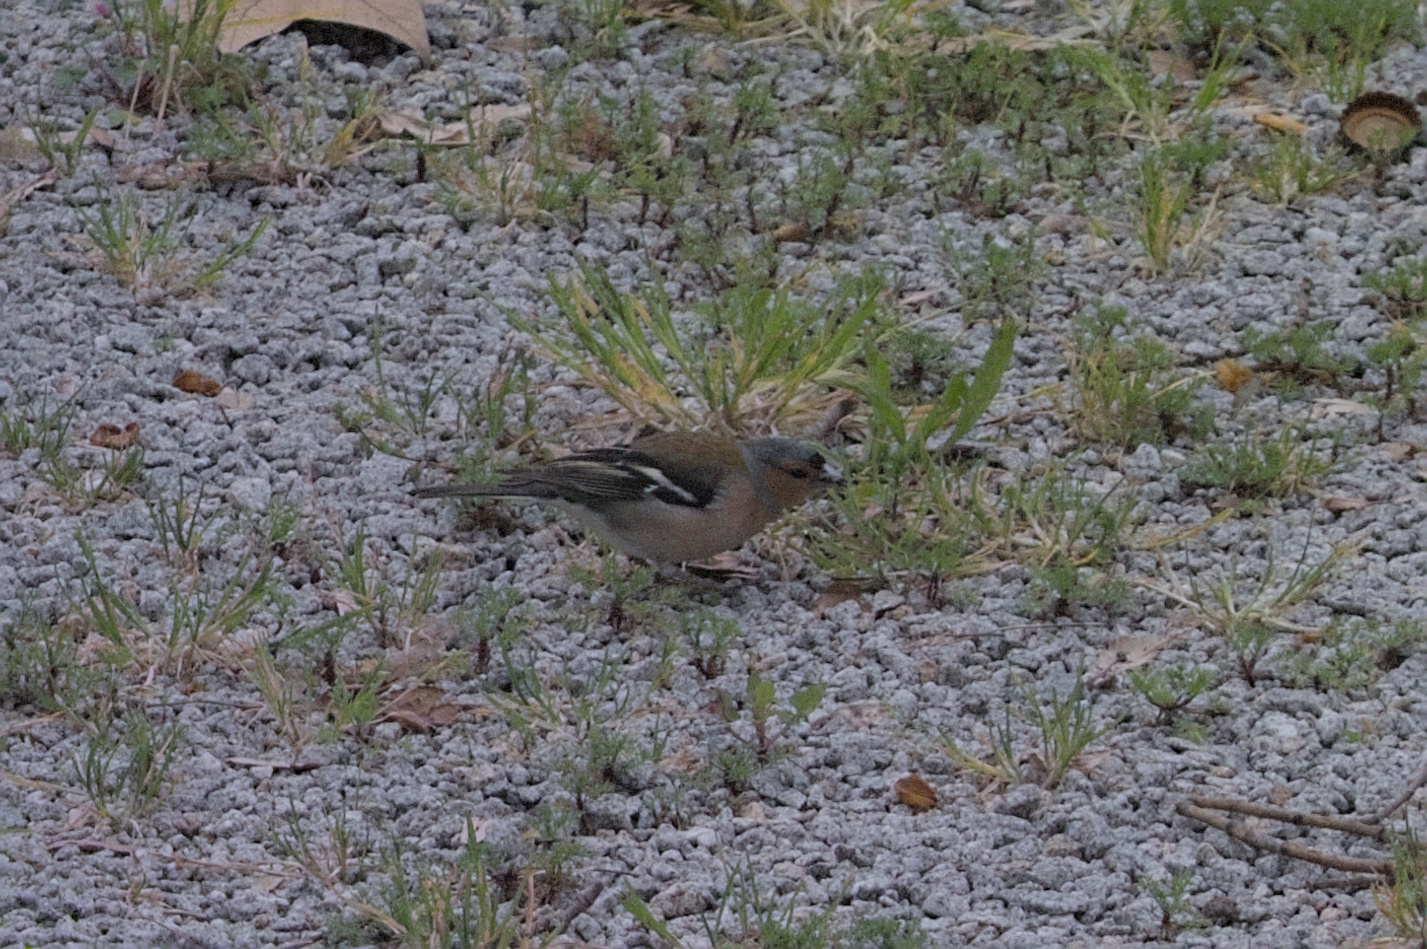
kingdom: Animalia
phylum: Chordata
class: Aves
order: Passeriformes
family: Fringillidae
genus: Fringilla
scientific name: Fringilla coelebs
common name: Common chaffinch
